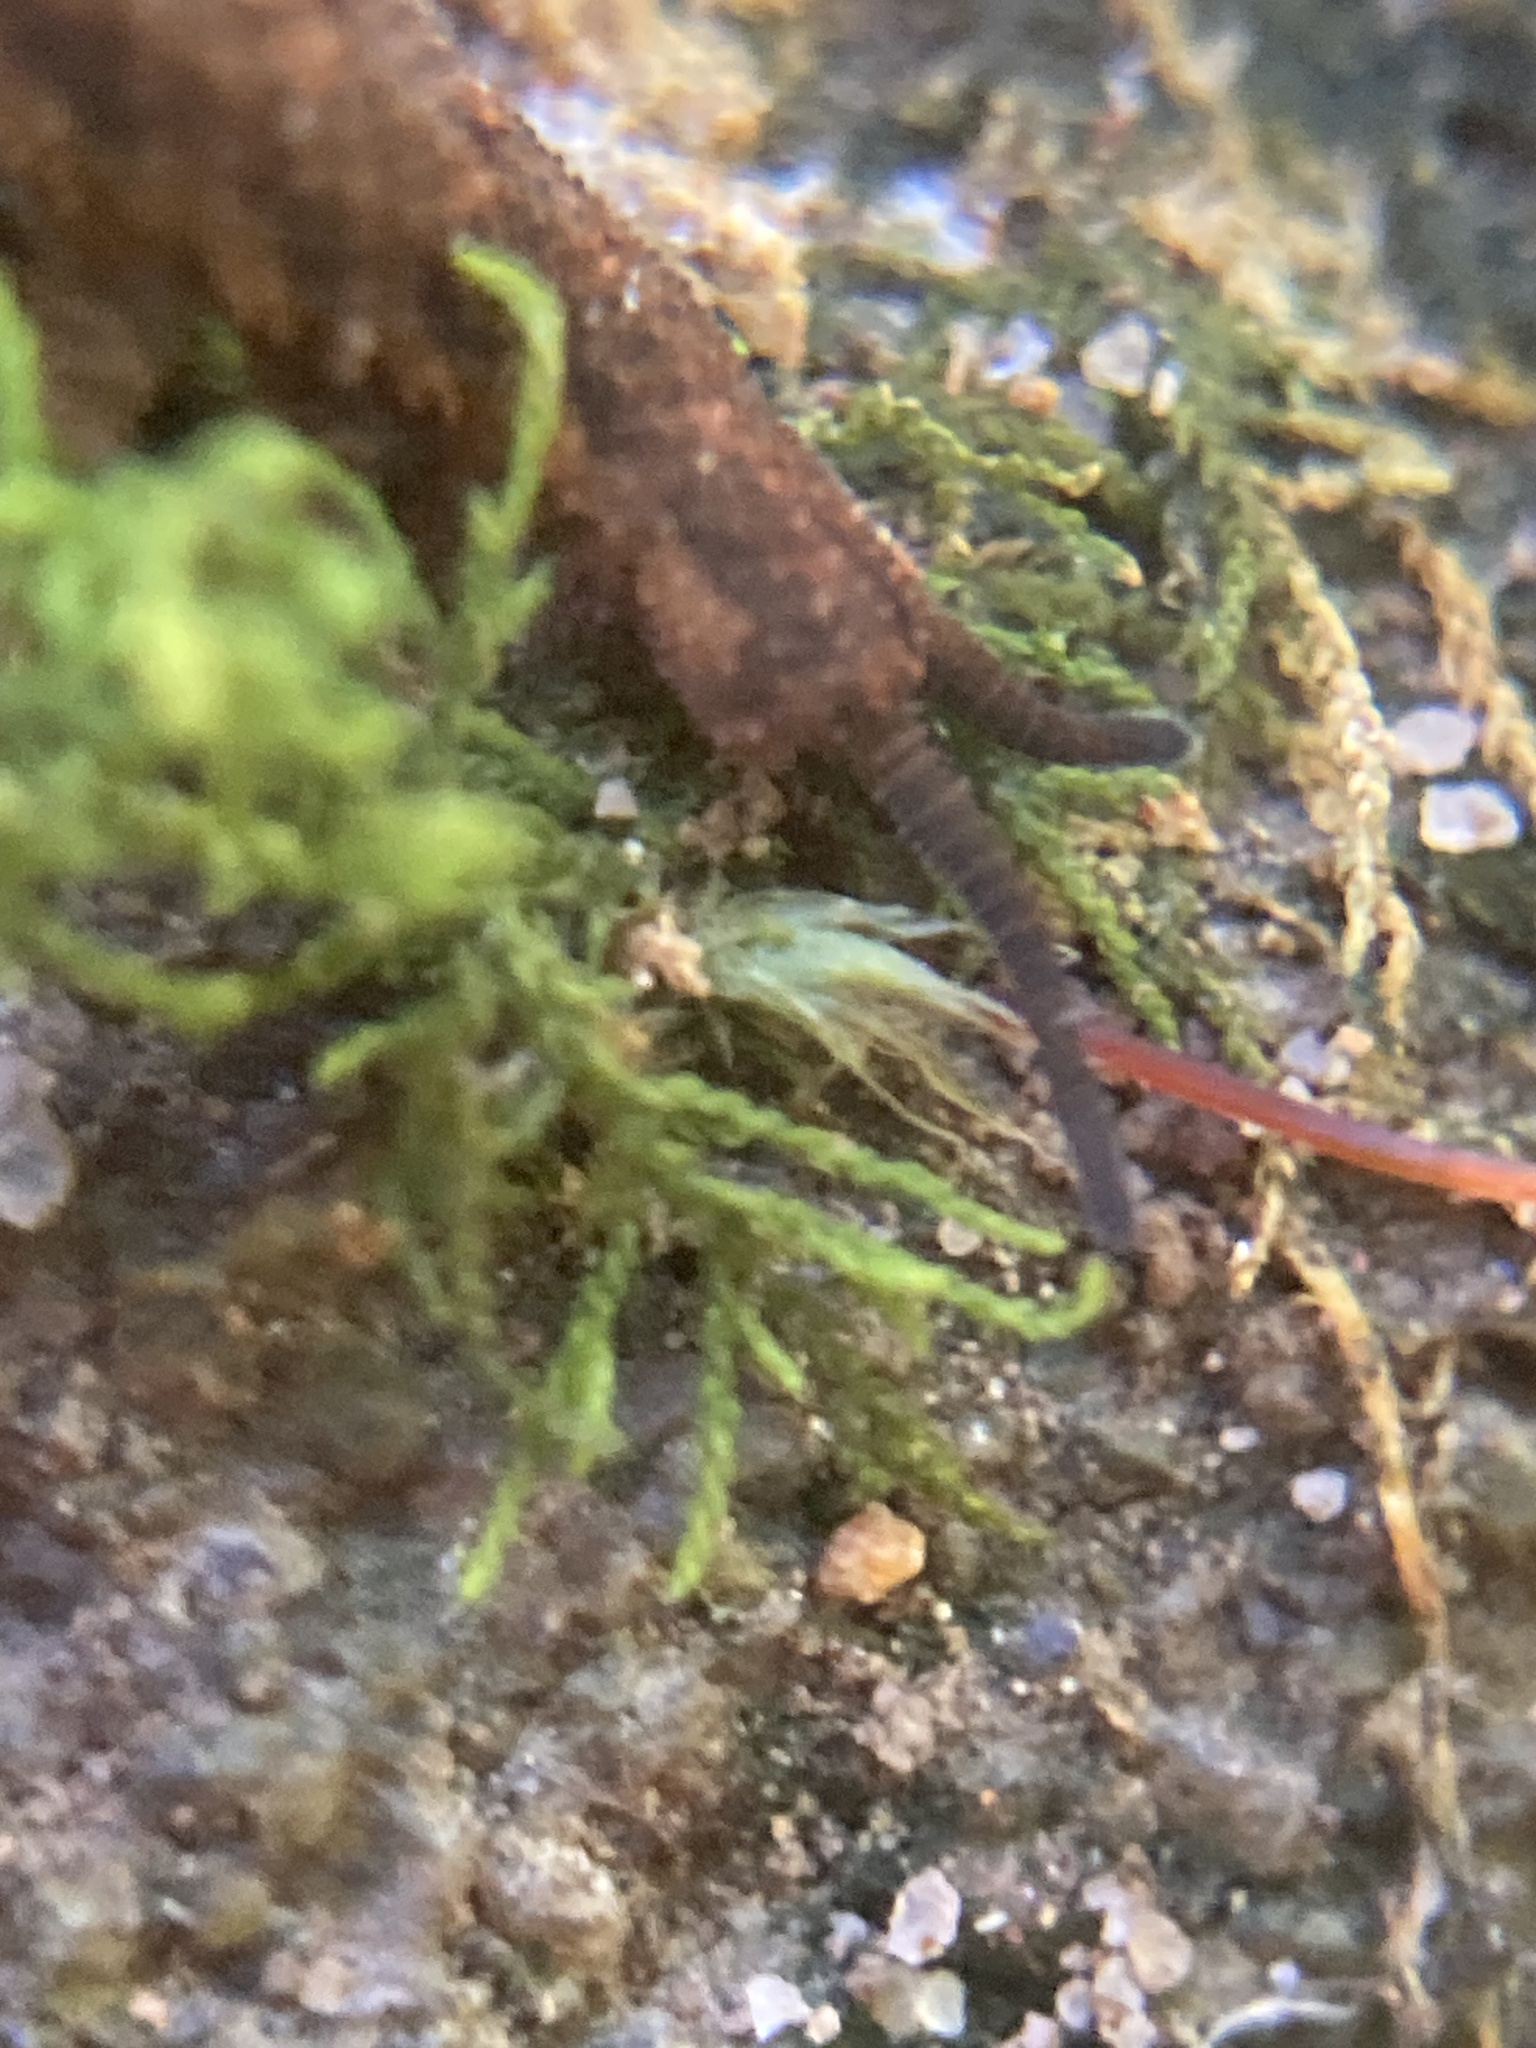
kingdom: Animalia
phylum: Onychophora
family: Peripatopsidae
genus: Anoplokaros
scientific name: Anoplokaros keerensis
